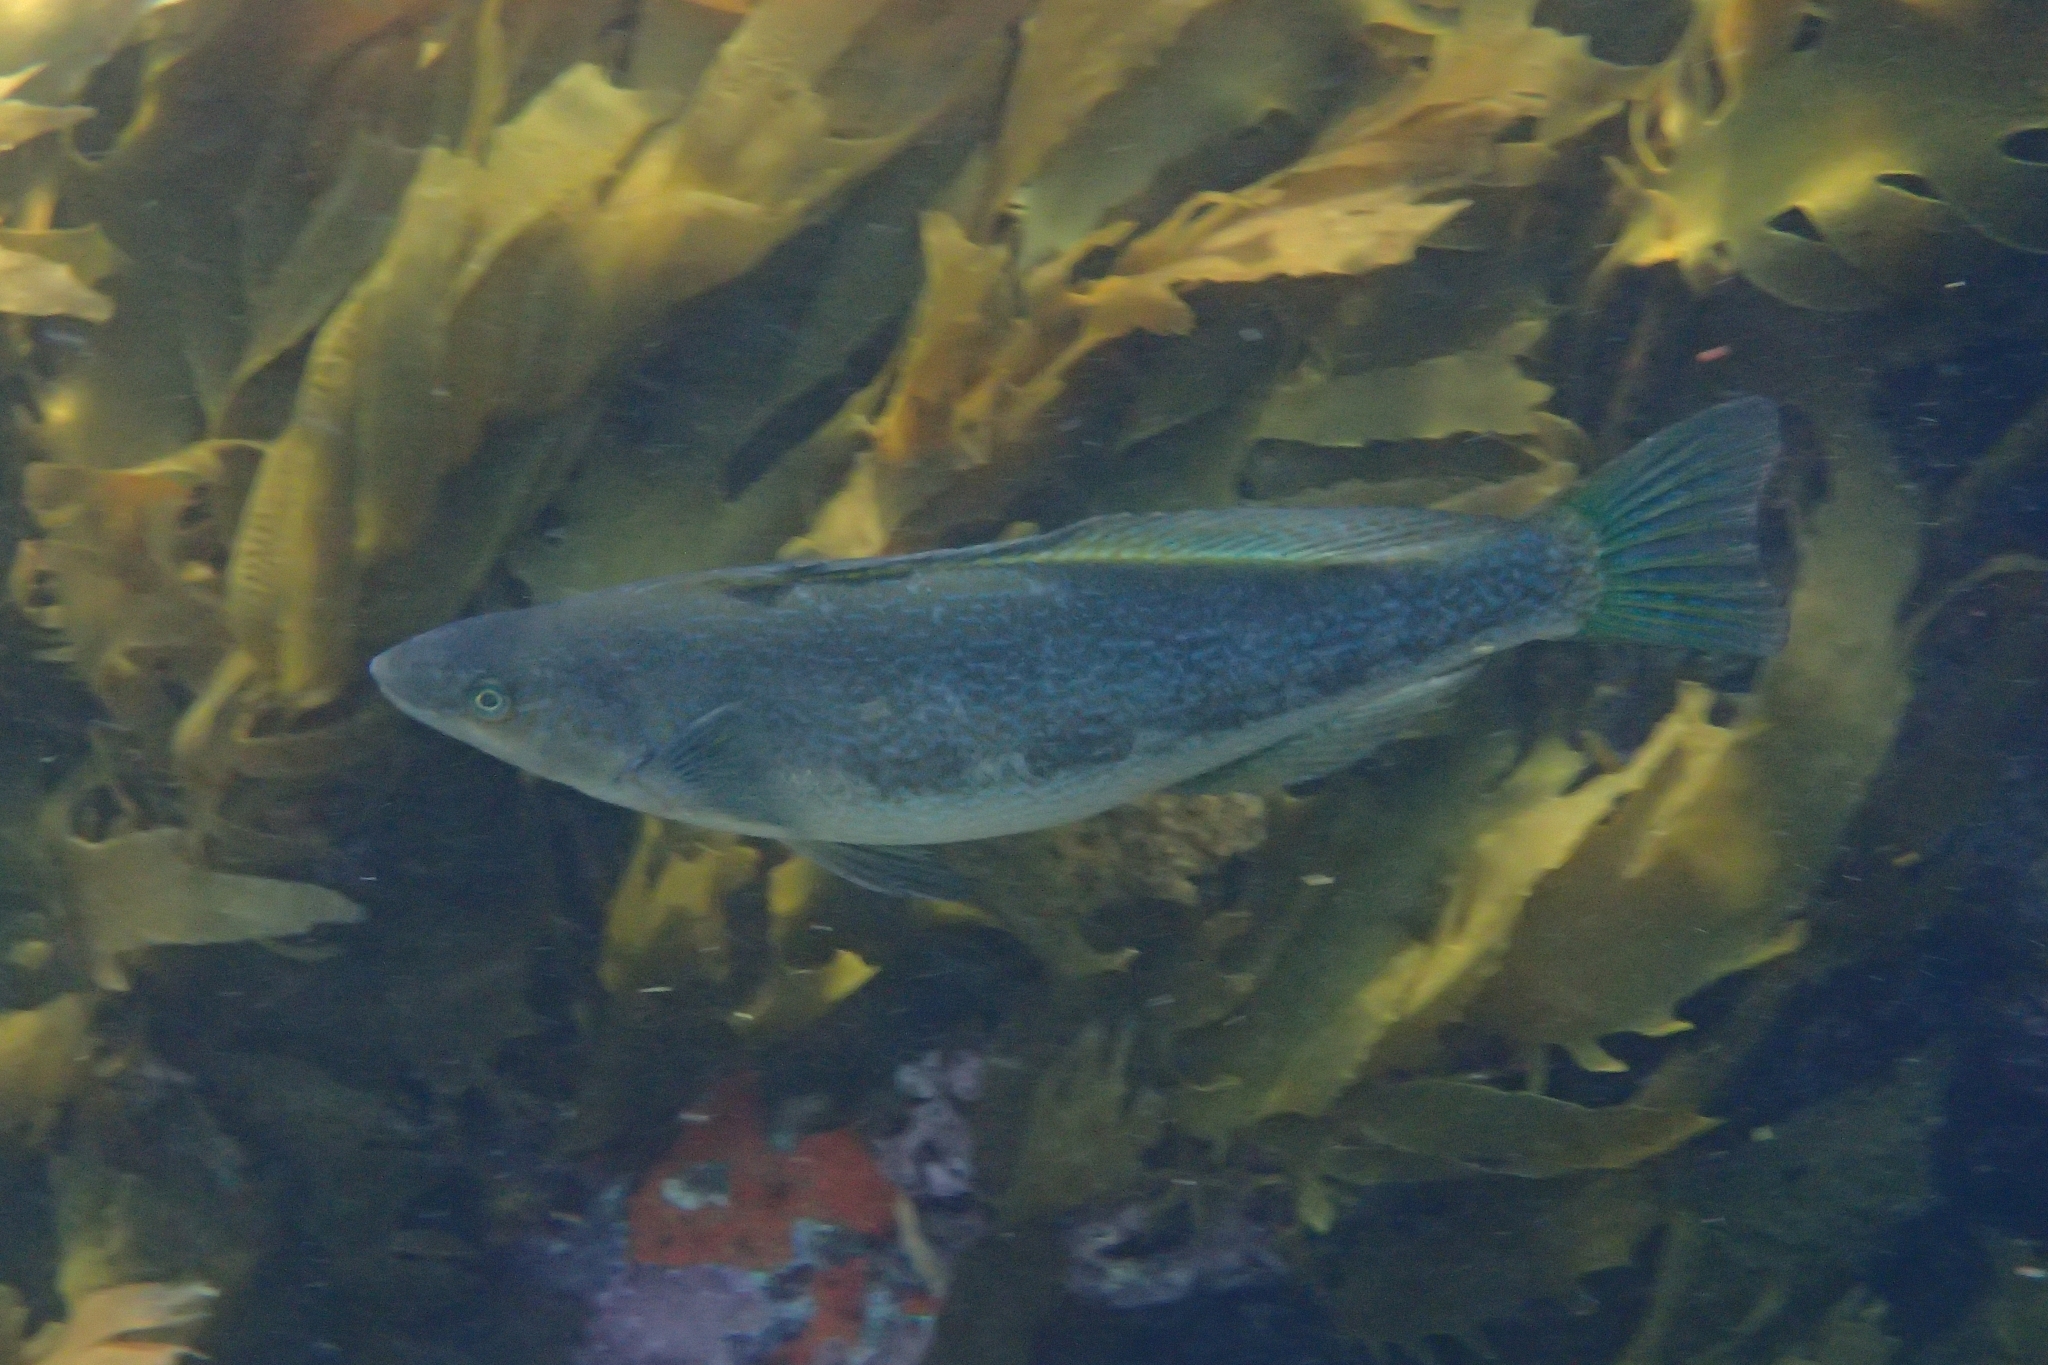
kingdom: Animalia
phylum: Chordata
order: Perciformes
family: Odacidae
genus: Odax
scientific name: Odax pullus
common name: Butterfish
